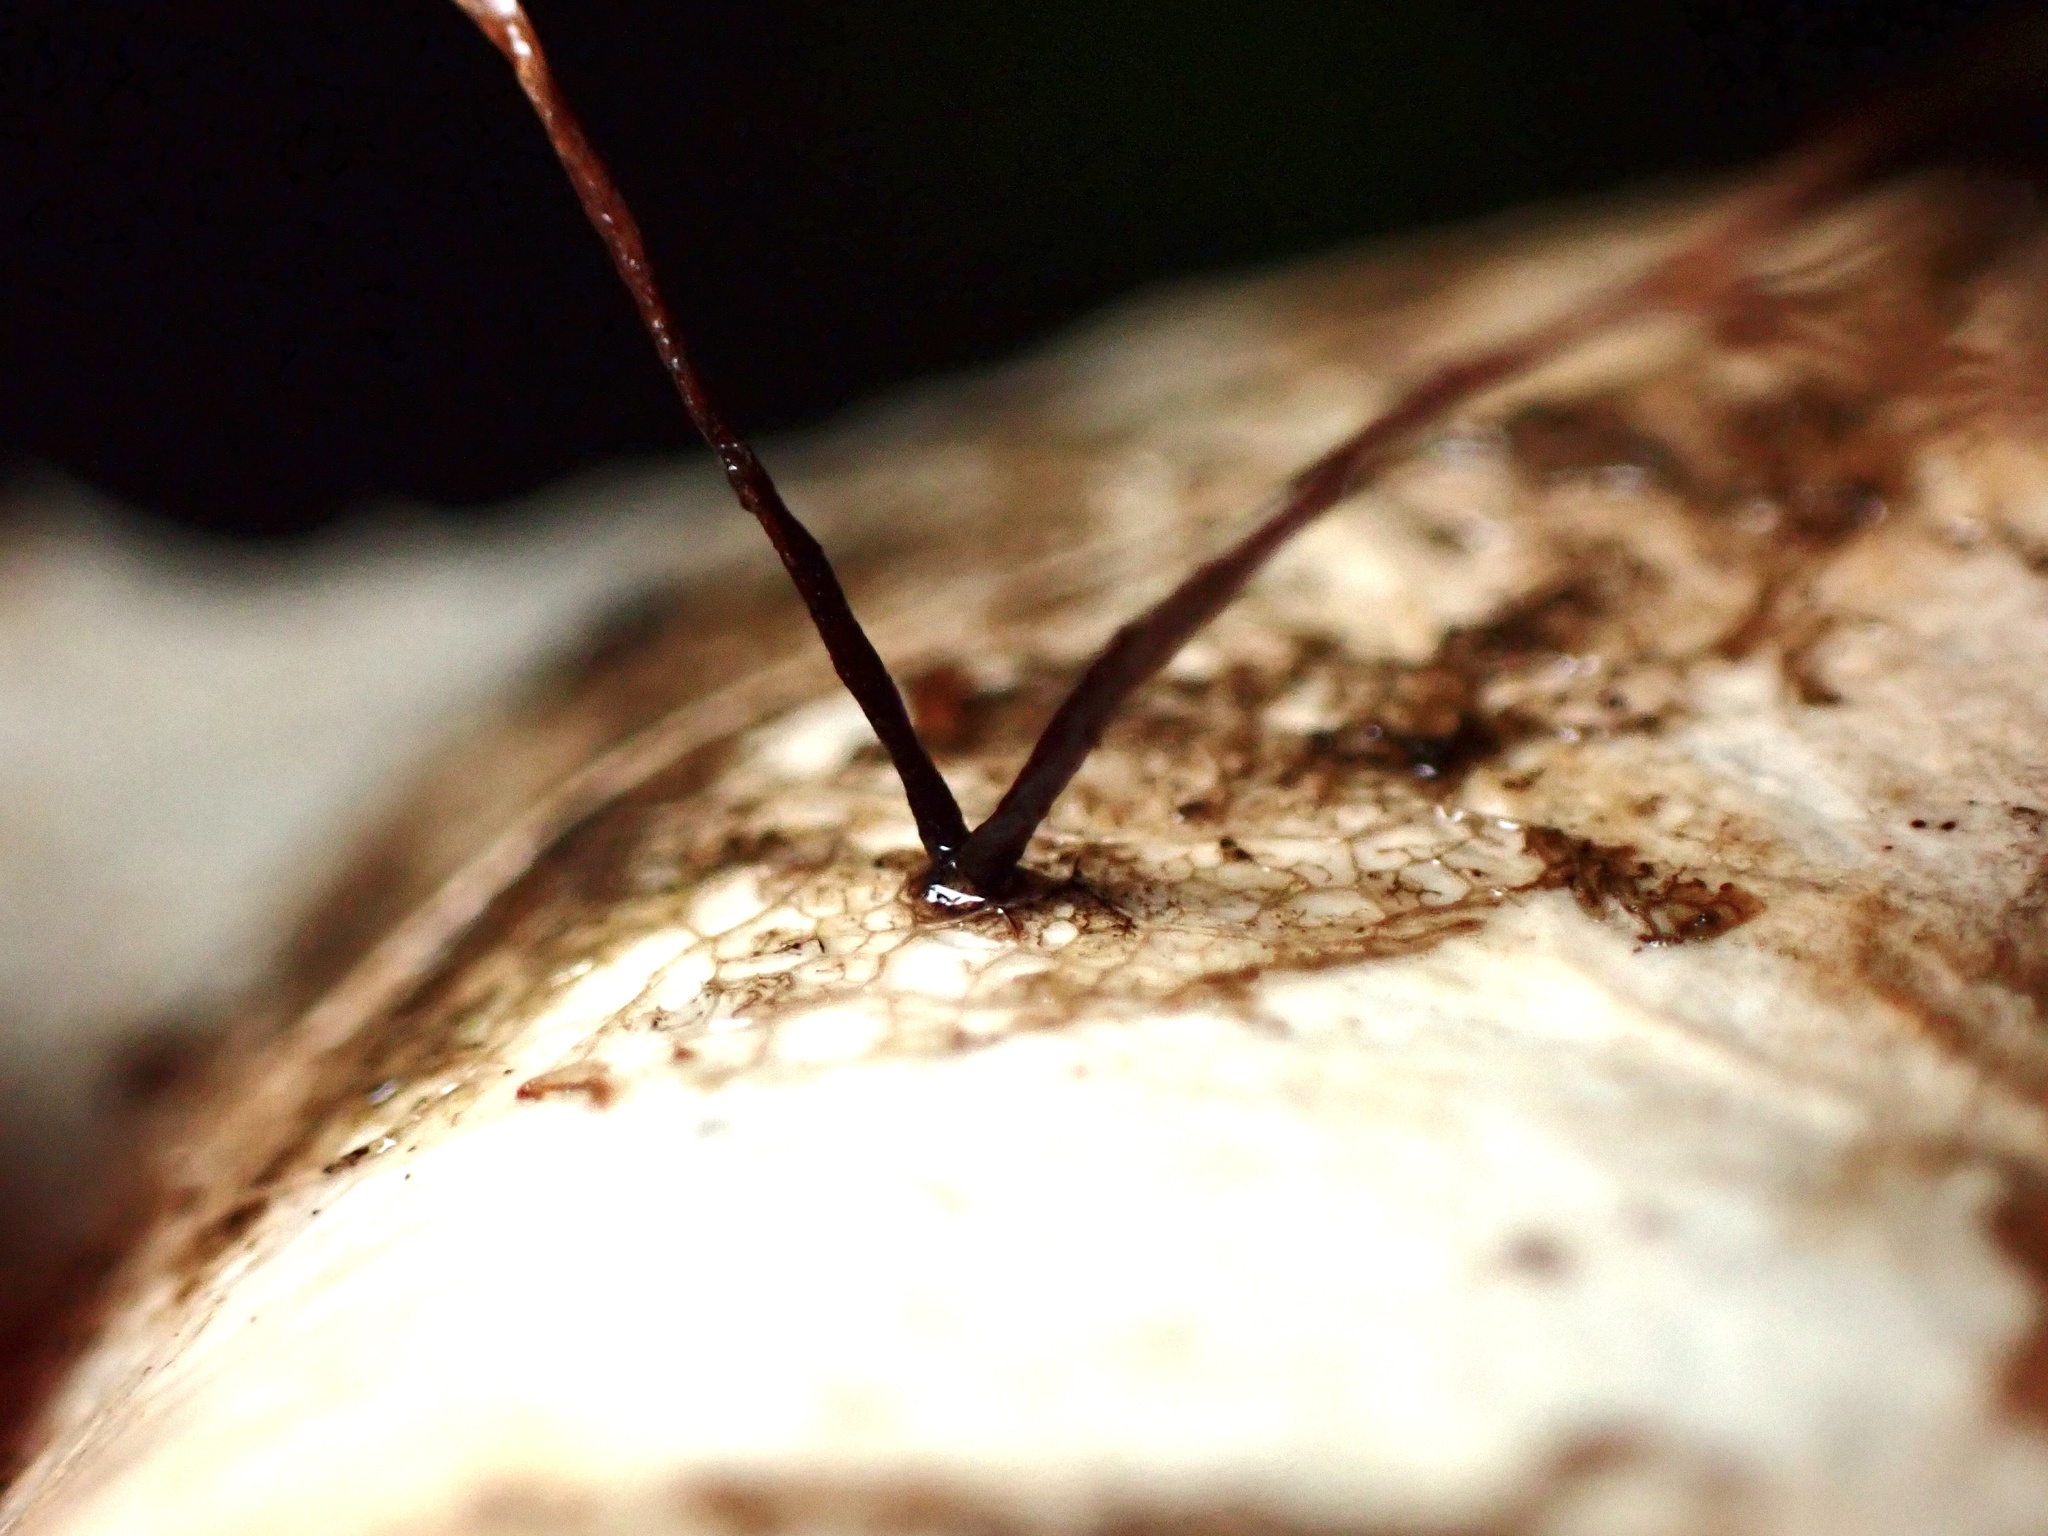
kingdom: Fungi
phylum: Ascomycota
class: Leotiomycetes
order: Rhytismatales
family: Rhytismataceae
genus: Coccomyces
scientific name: Coccomyces dentatus
